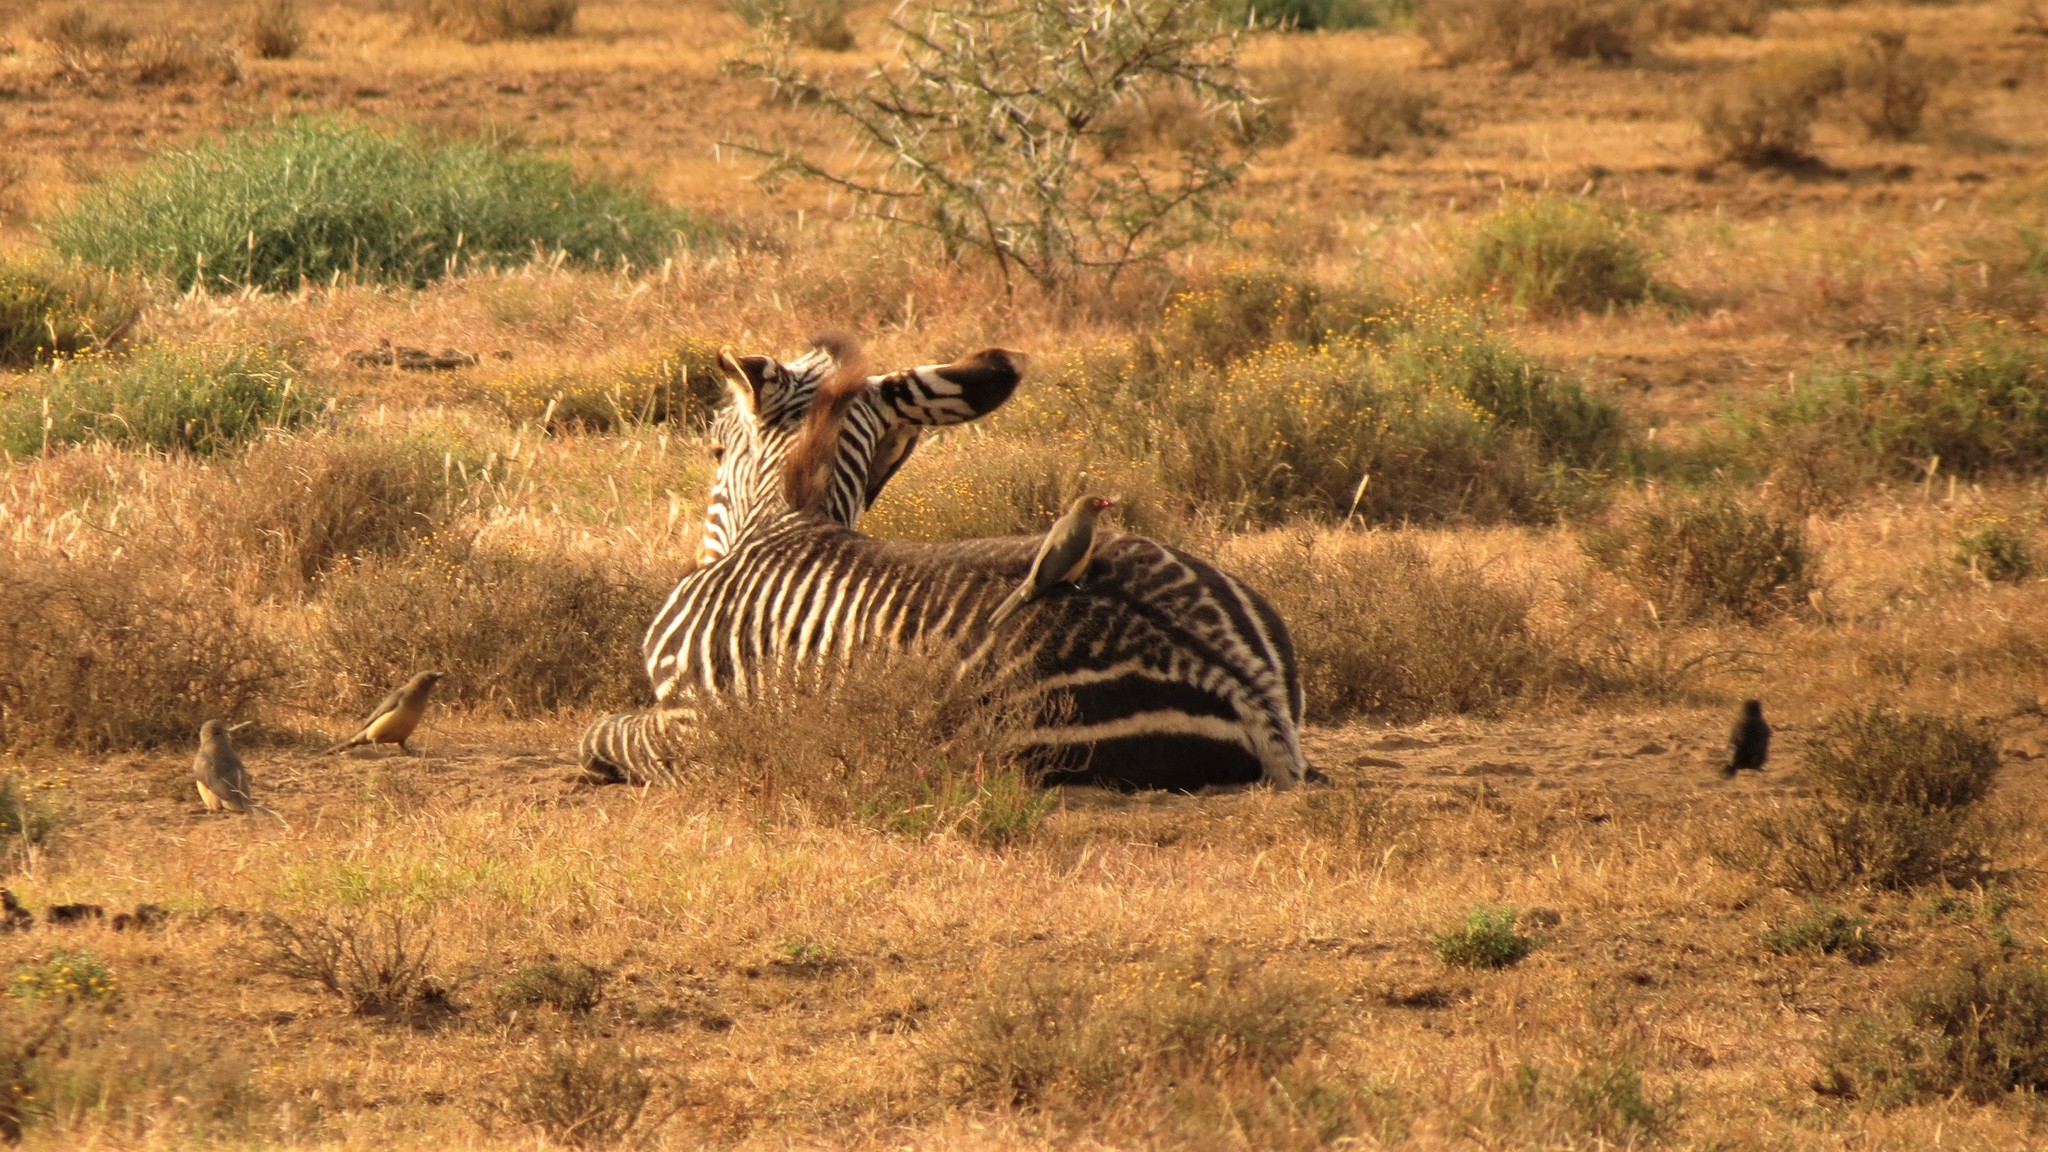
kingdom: Animalia
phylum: Chordata
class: Aves
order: Passeriformes
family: Buphagidae
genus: Buphagus
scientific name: Buphagus erythrorhynchus
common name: Red-billed oxpecker
